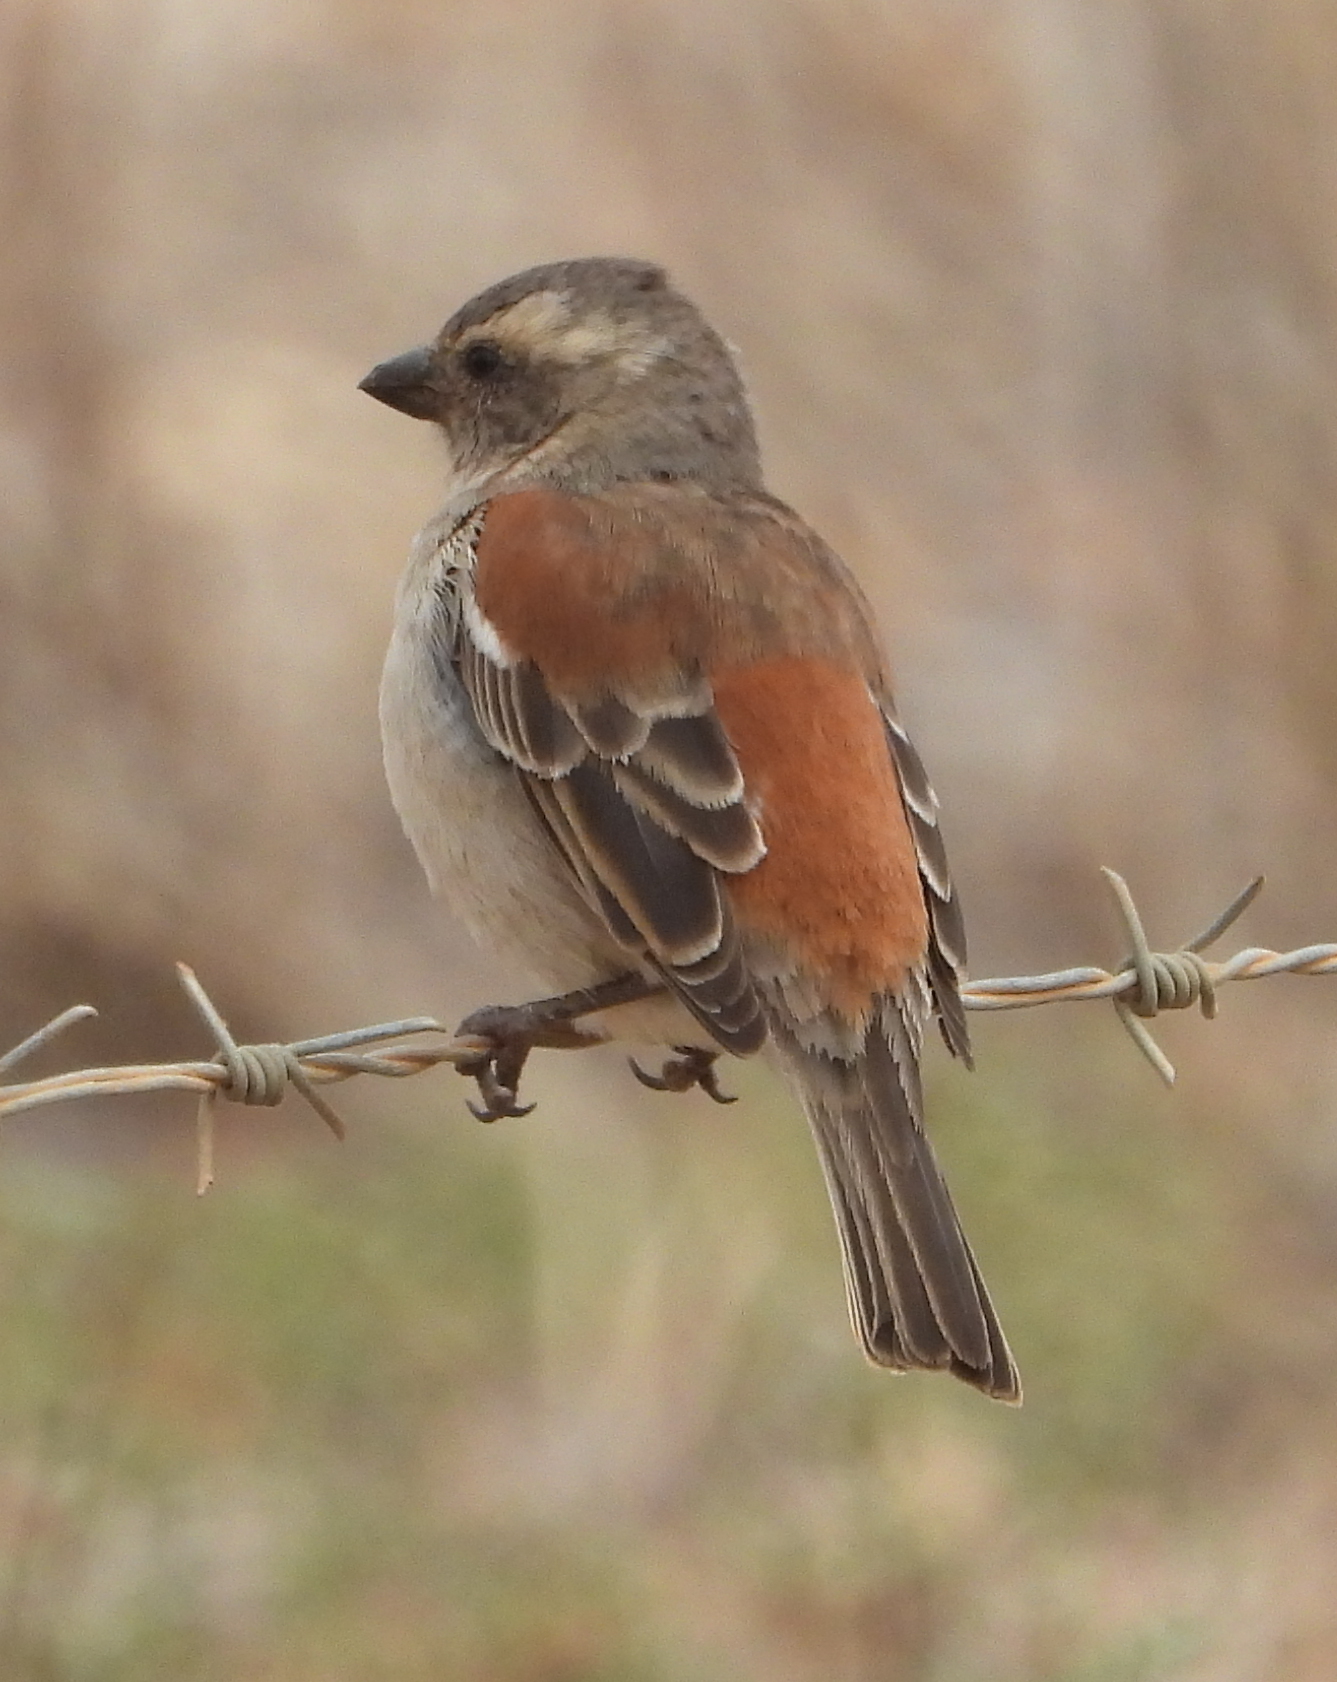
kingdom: Animalia
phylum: Chordata
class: Aves
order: Passeriformes
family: Passeridae
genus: Passer
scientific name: Passer melanurus
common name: Cape sparrow
